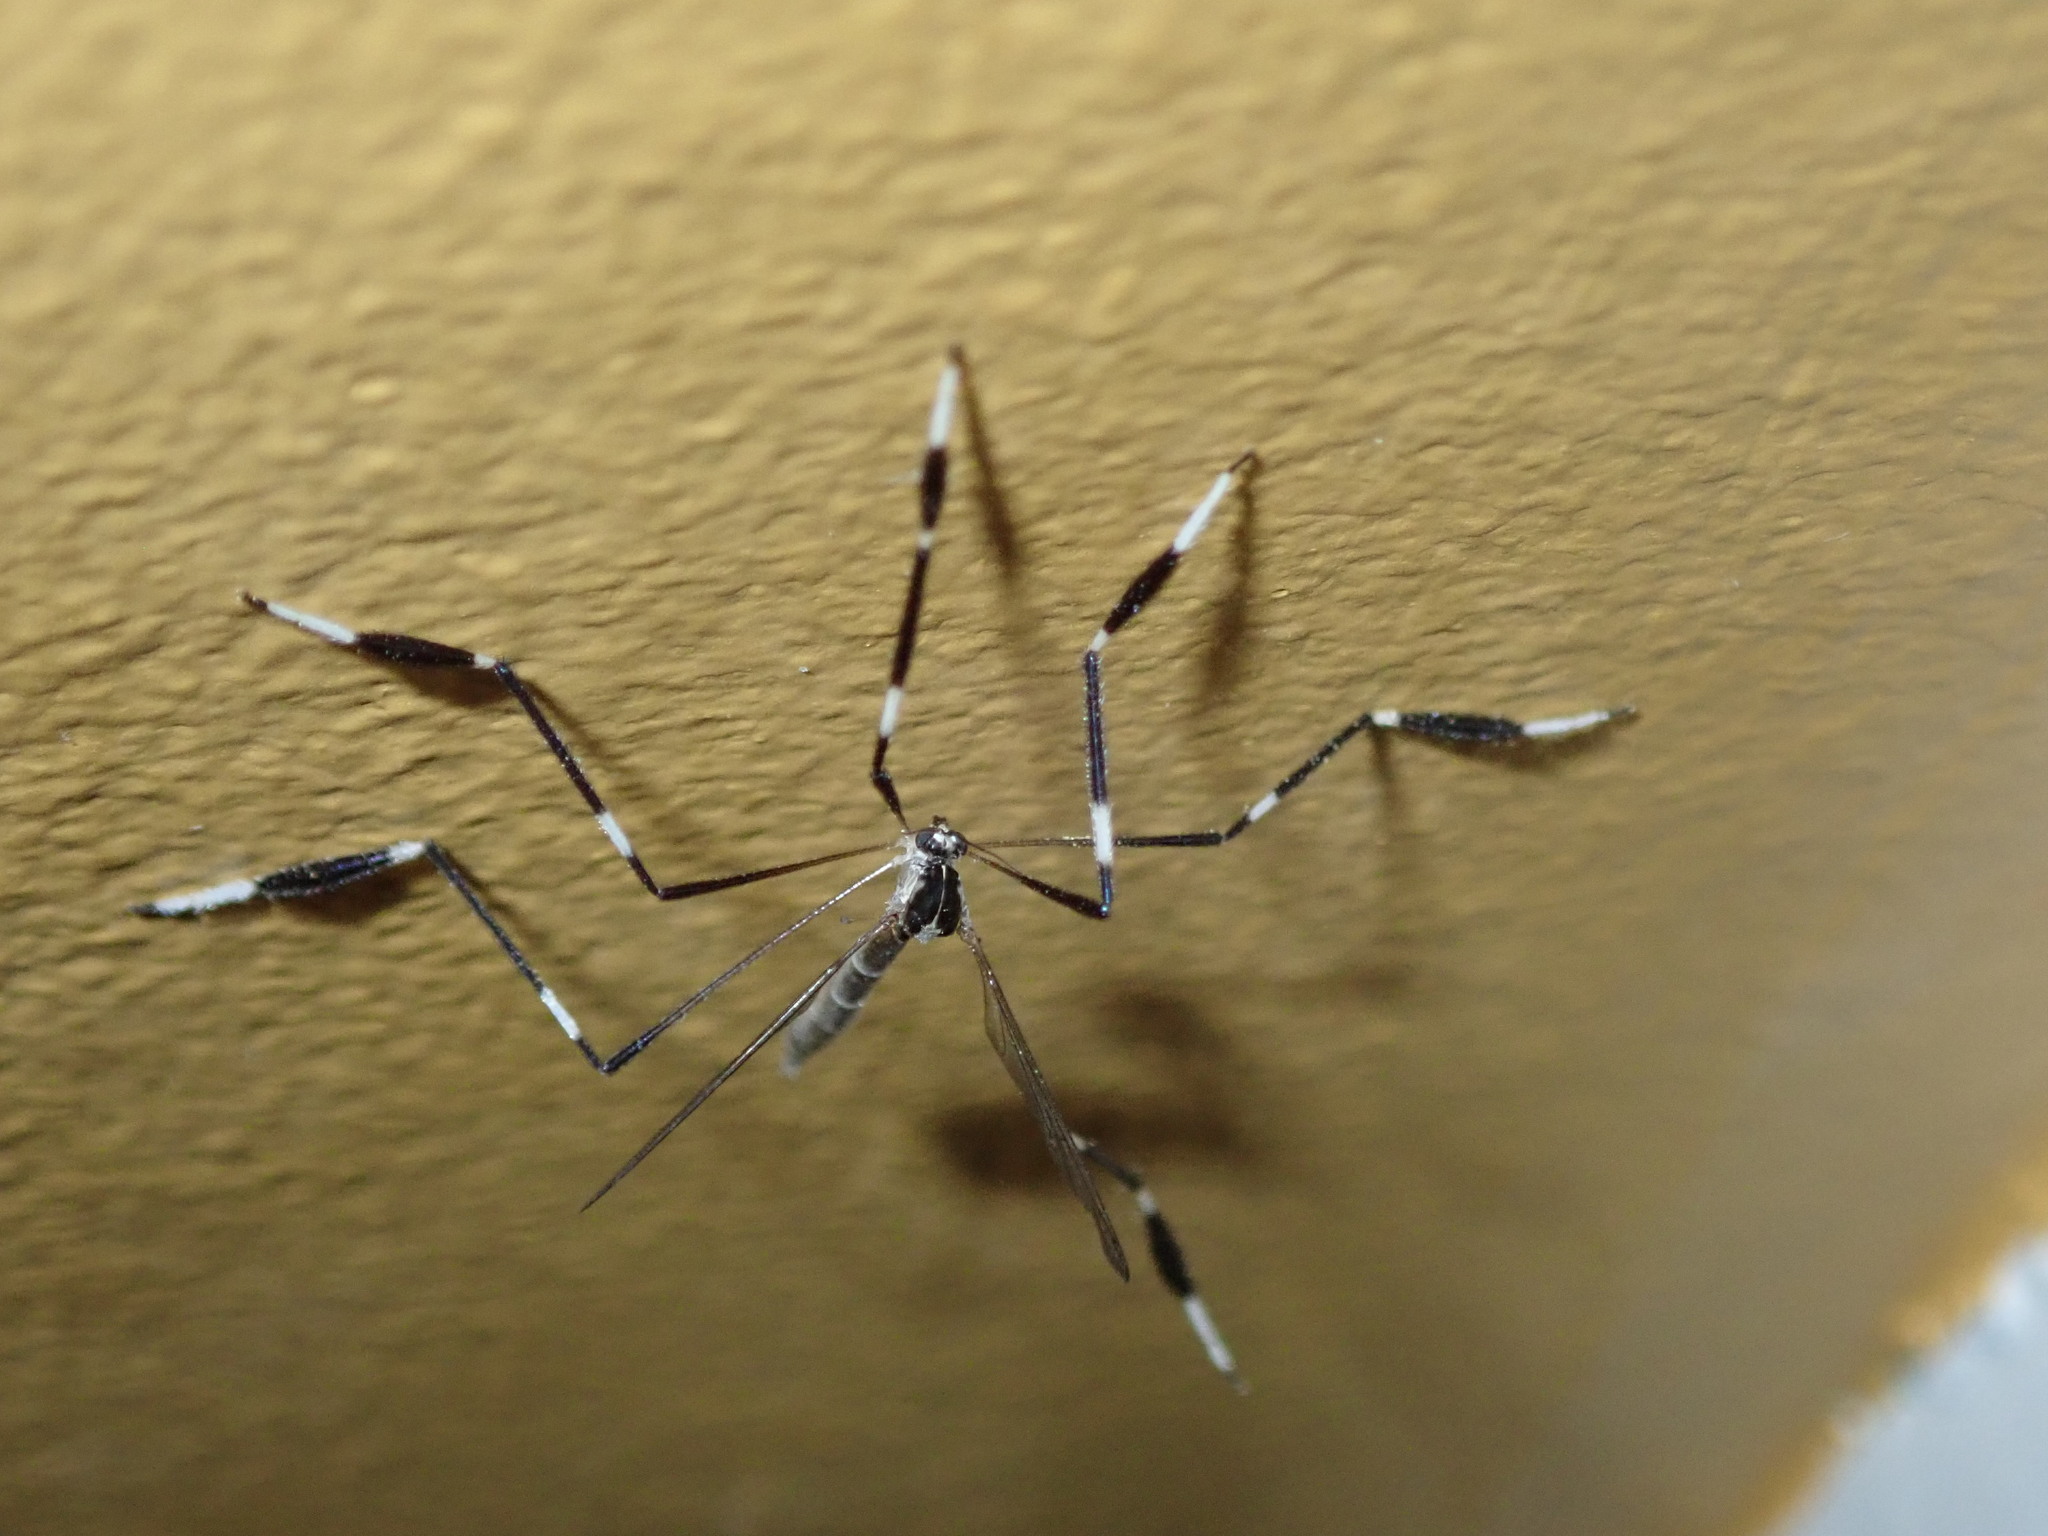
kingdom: Animalia
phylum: Arthropoda
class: Insecta
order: Diptera
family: Ptychopteridae
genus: Bittacomorpha
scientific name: Bittacomorpha clavipes
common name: Eastern phantom crane fly
